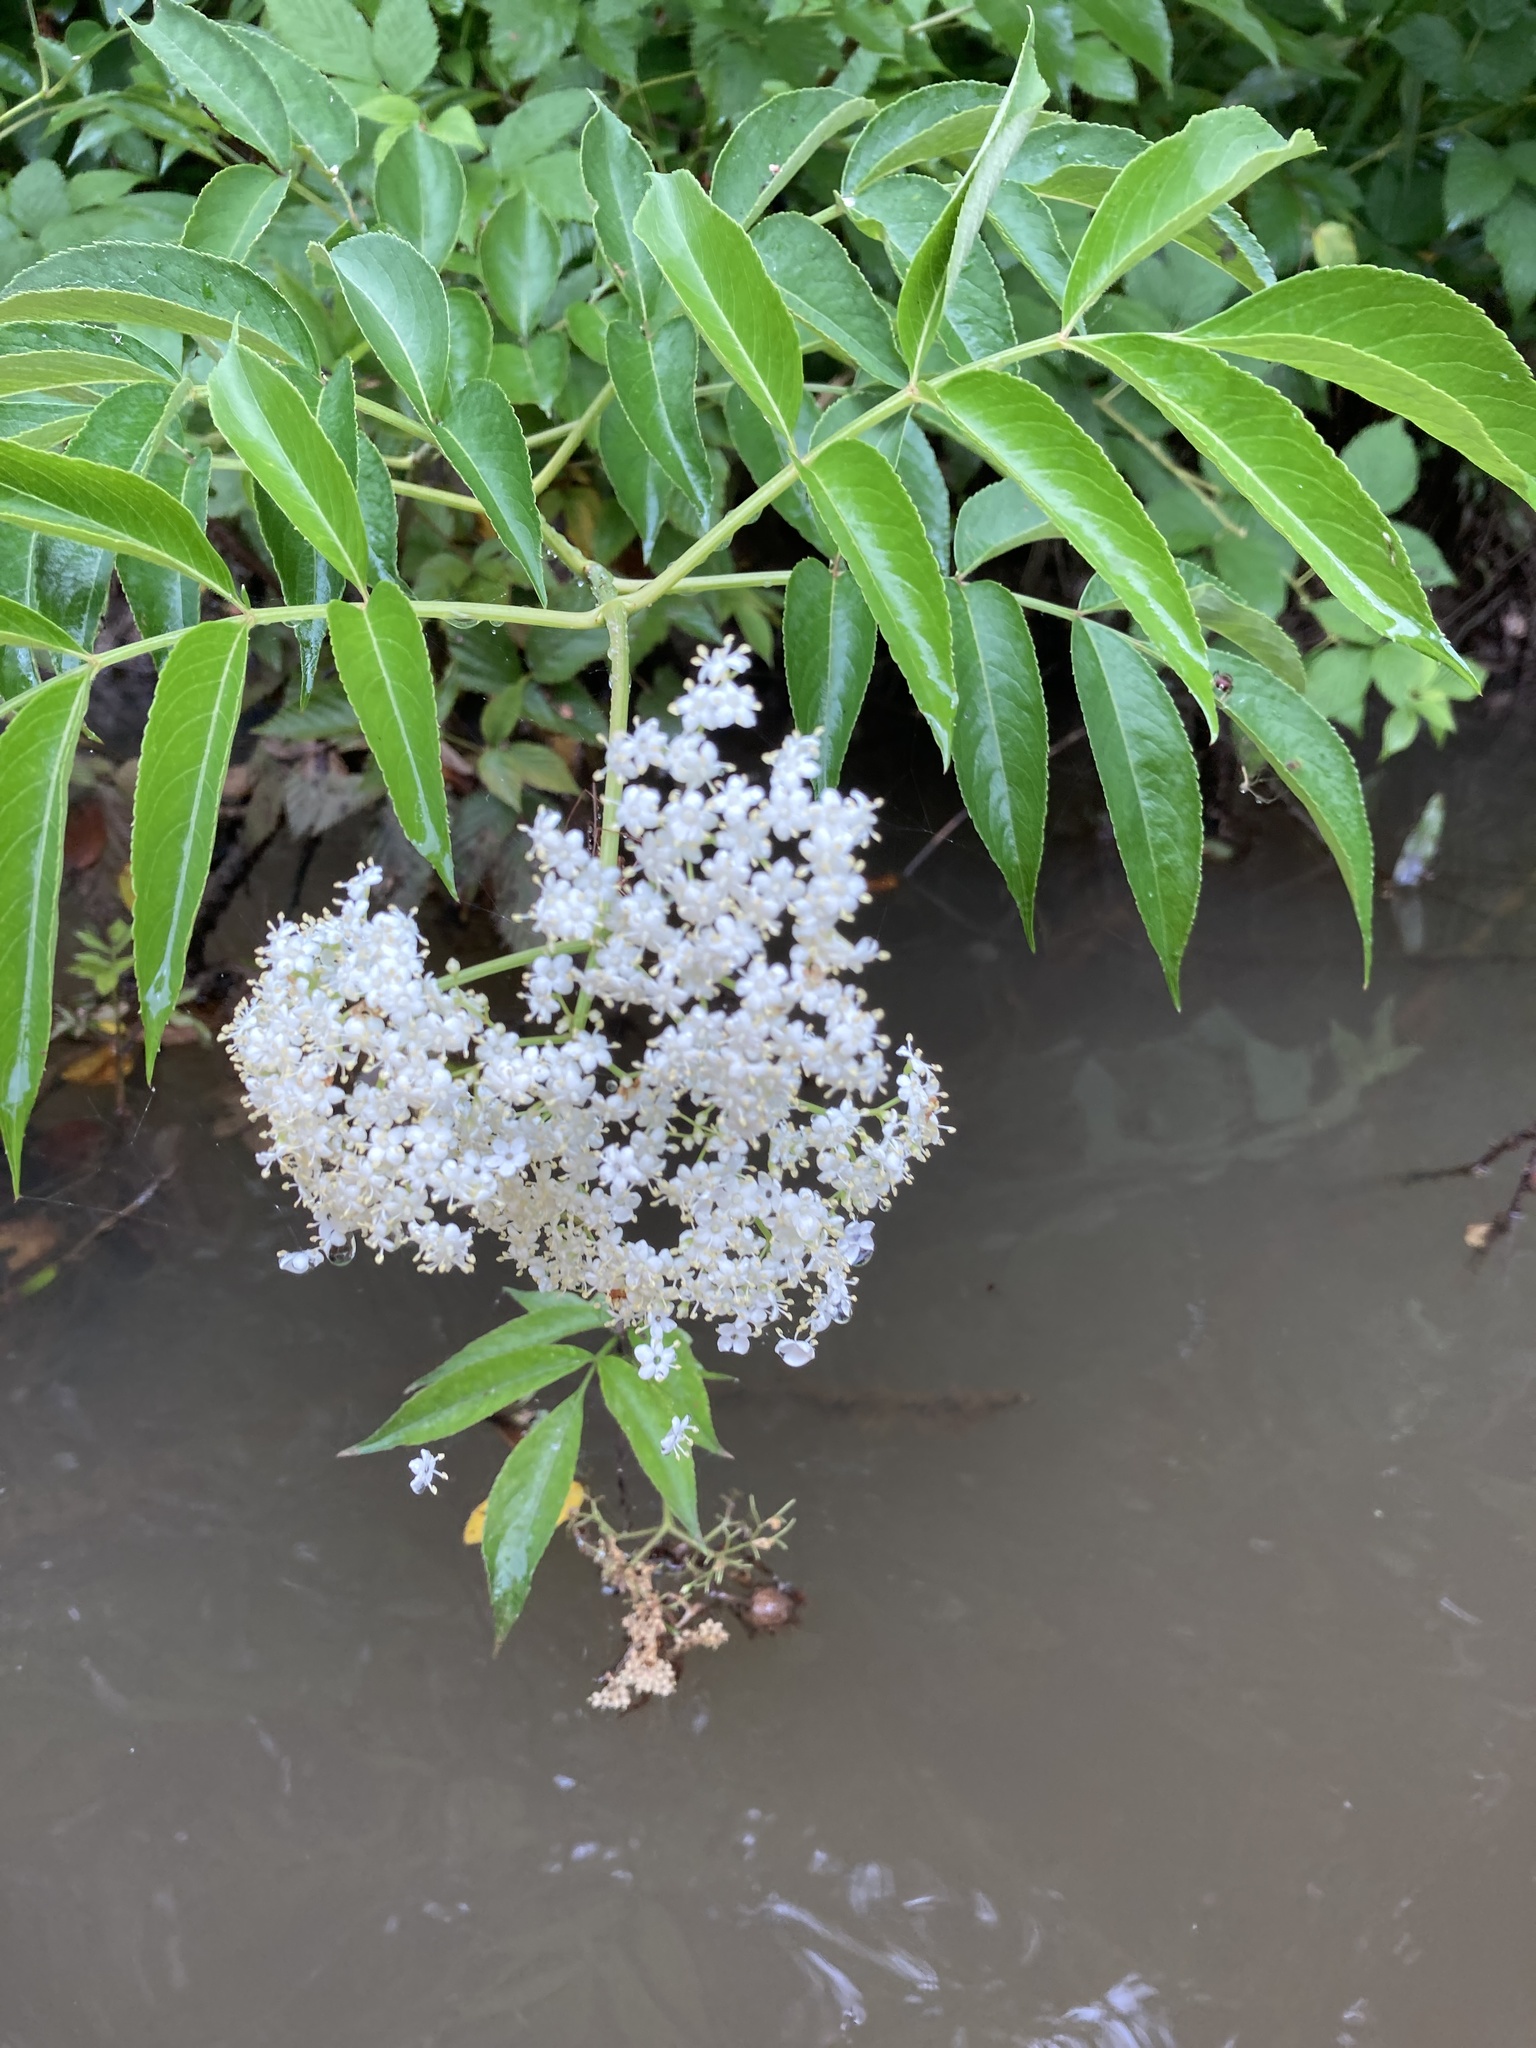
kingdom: Plantae
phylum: Tracheophyta
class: Magnoliopsida
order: Dipsacales
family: Viburnaceae
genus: Sambucus
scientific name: Sambucus canadensis
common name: American elder
